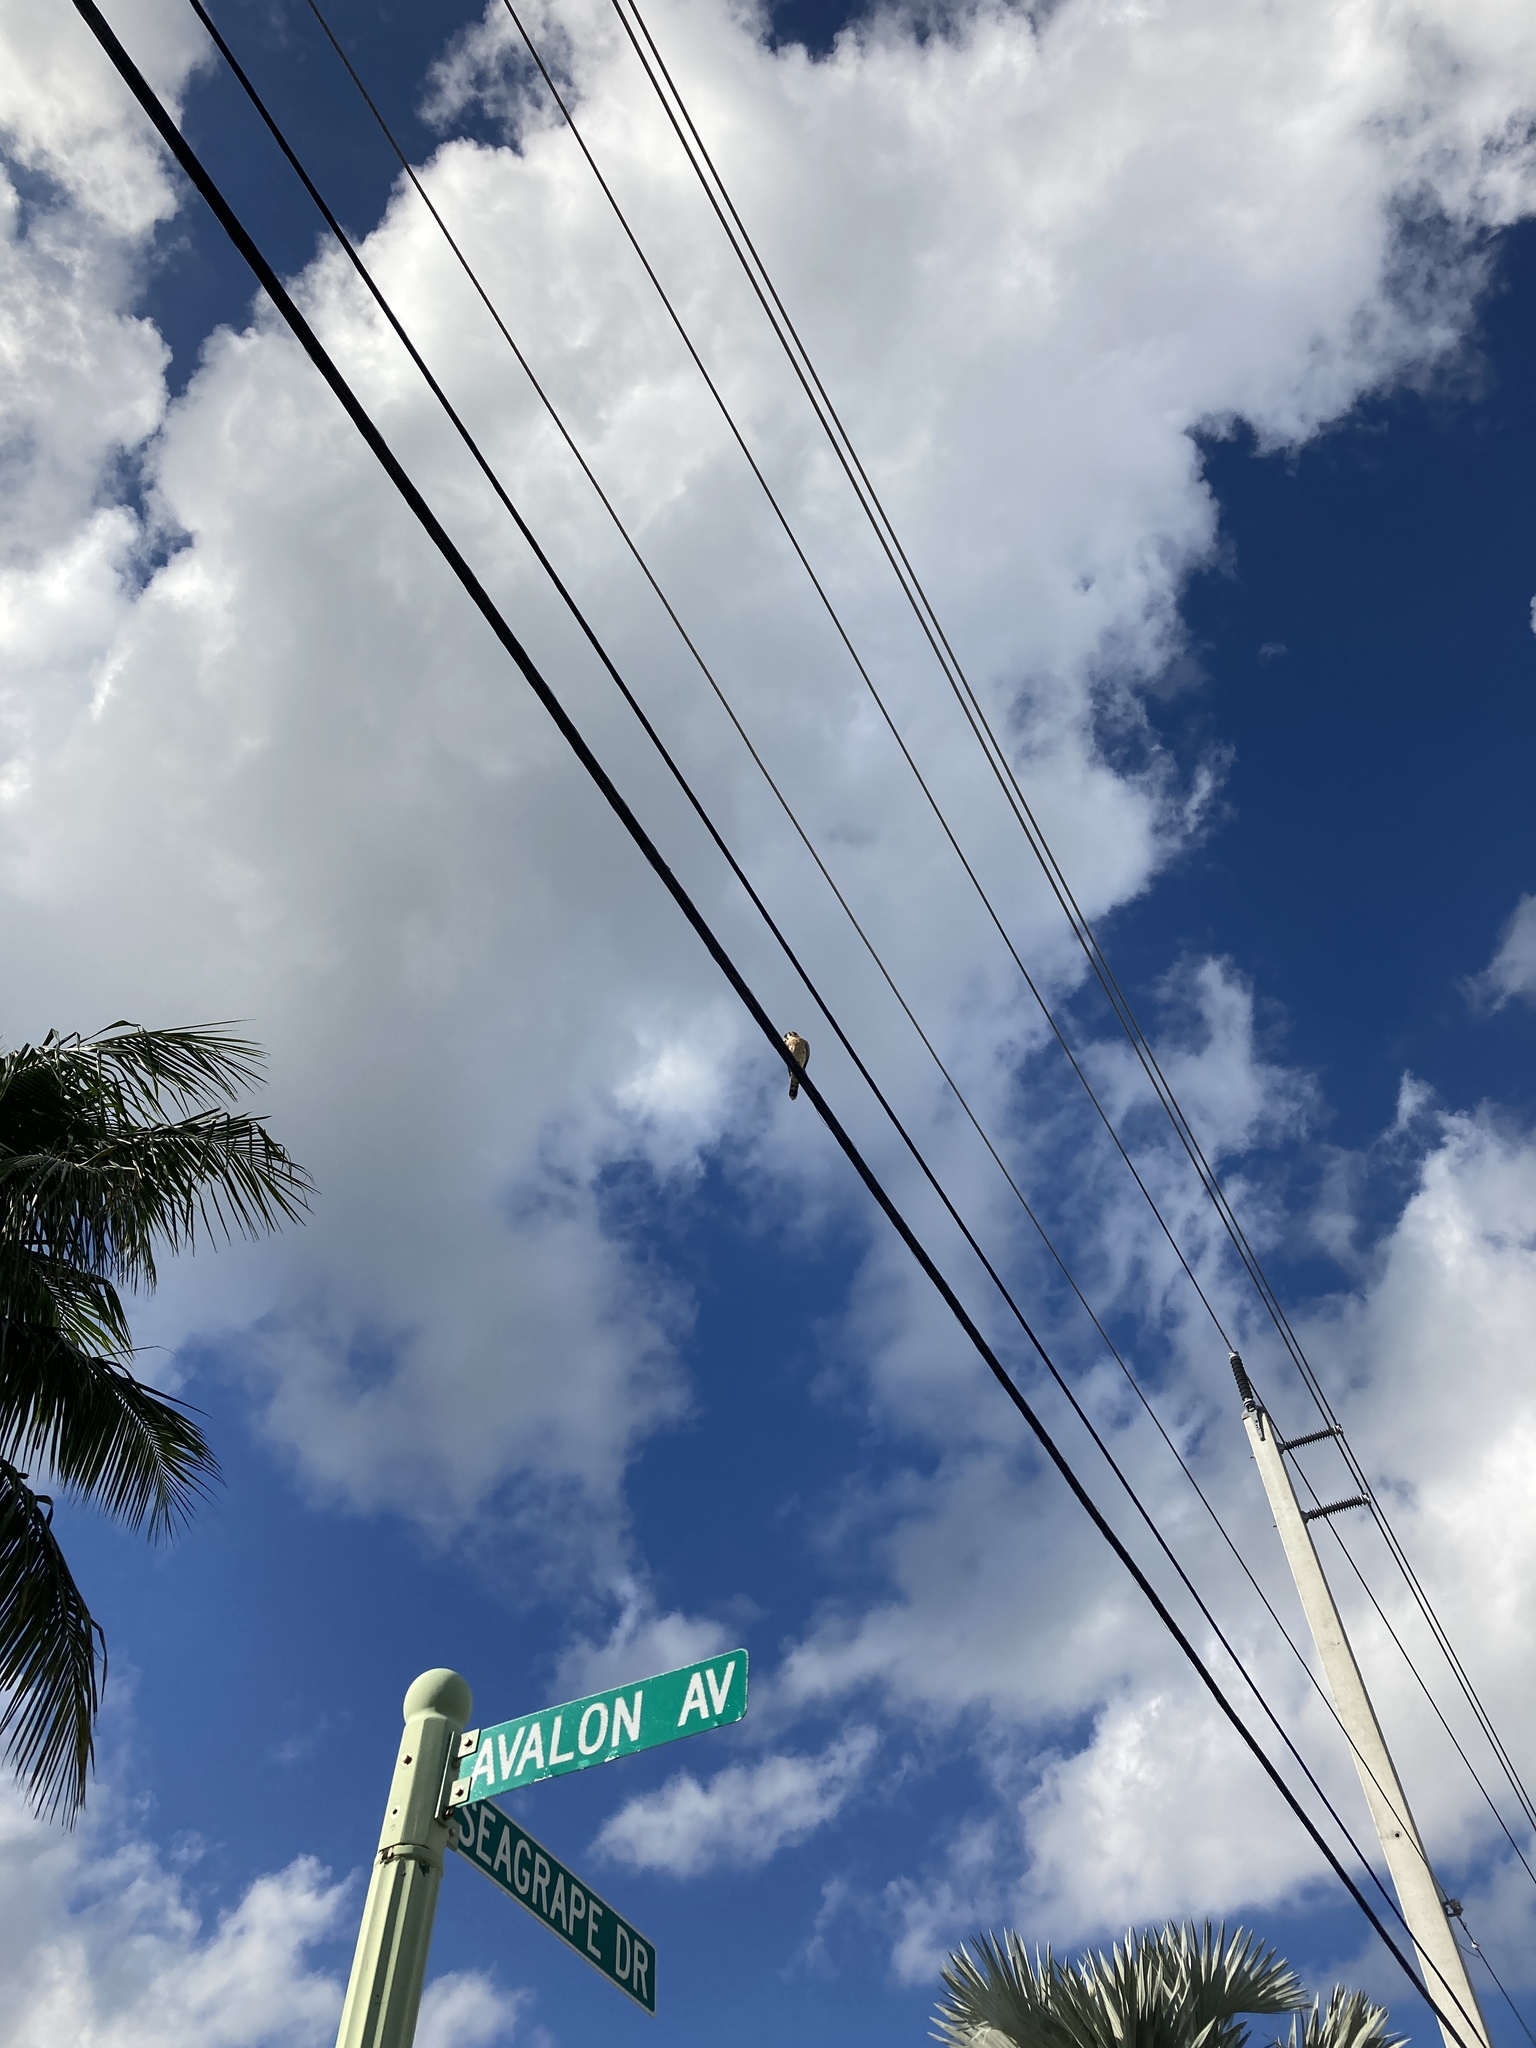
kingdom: Animalia
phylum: Chordata
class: Aves
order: Falconiformes
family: Falconidae
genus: Falco
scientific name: Falco sparverius
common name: American kestrel
